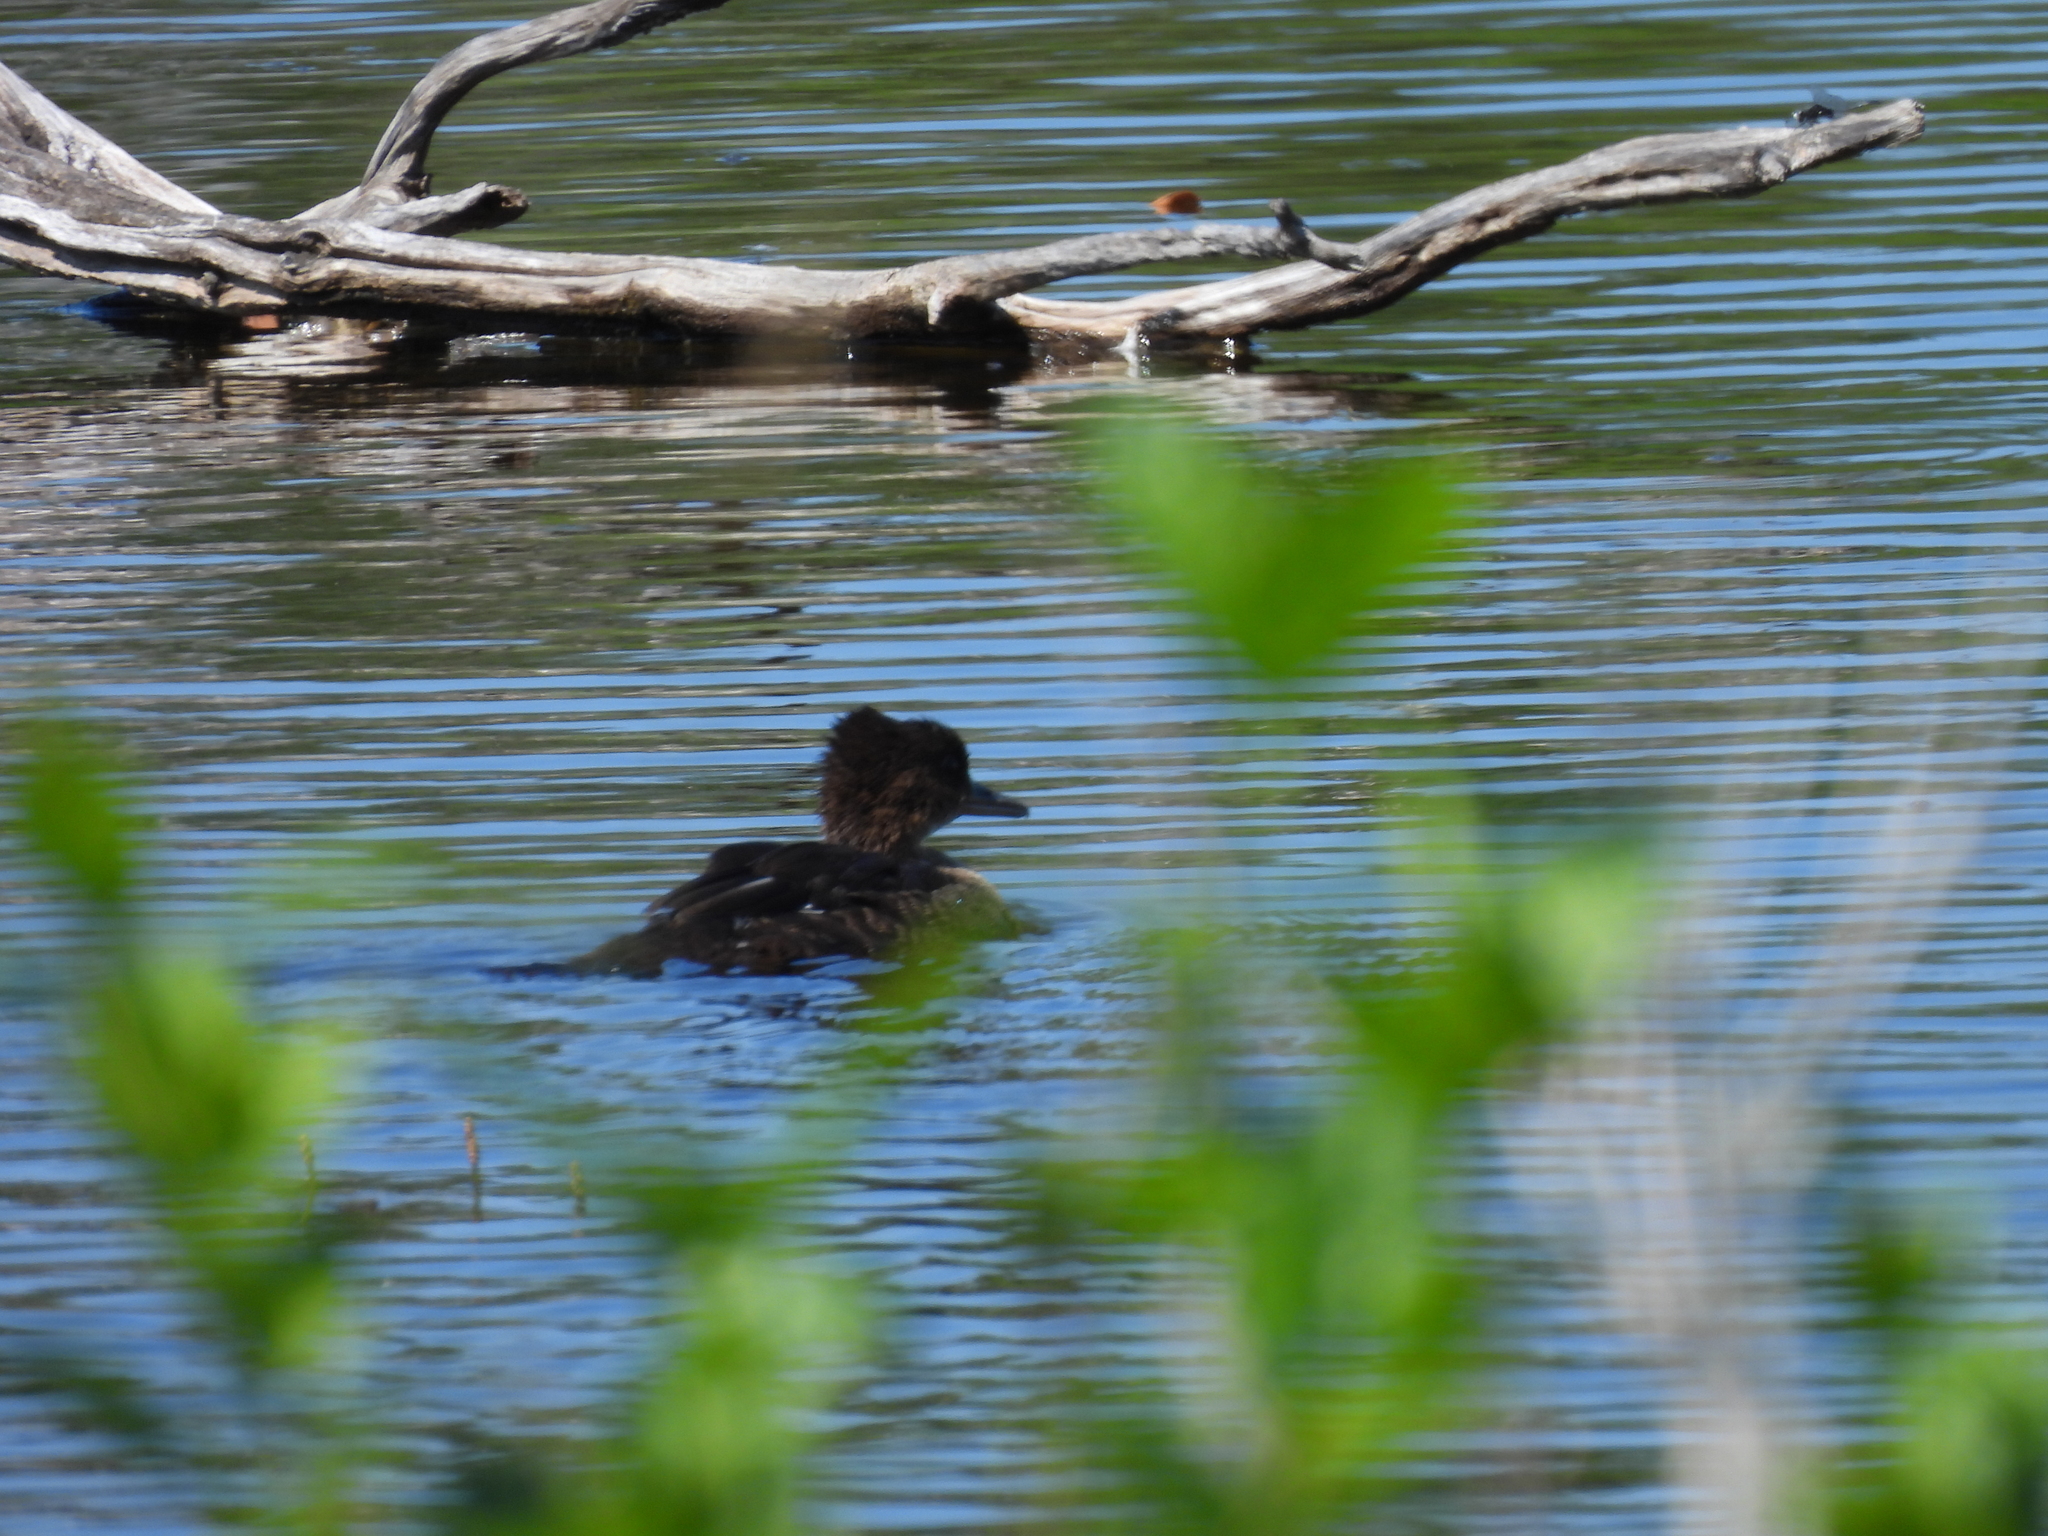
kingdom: Animalia
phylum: Chordata
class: Aves
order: Anseriformes
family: Anatidae
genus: Lophodytes
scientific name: Lophodytes cucullatus
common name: Hooded merganser
